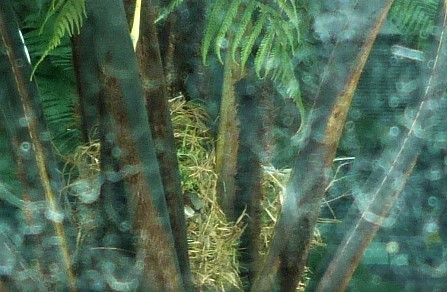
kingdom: Animalia
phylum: Chordata
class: Aves
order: Passeriformes
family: Passeridae
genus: Passer
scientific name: Passer domesticus
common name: House sparrow
